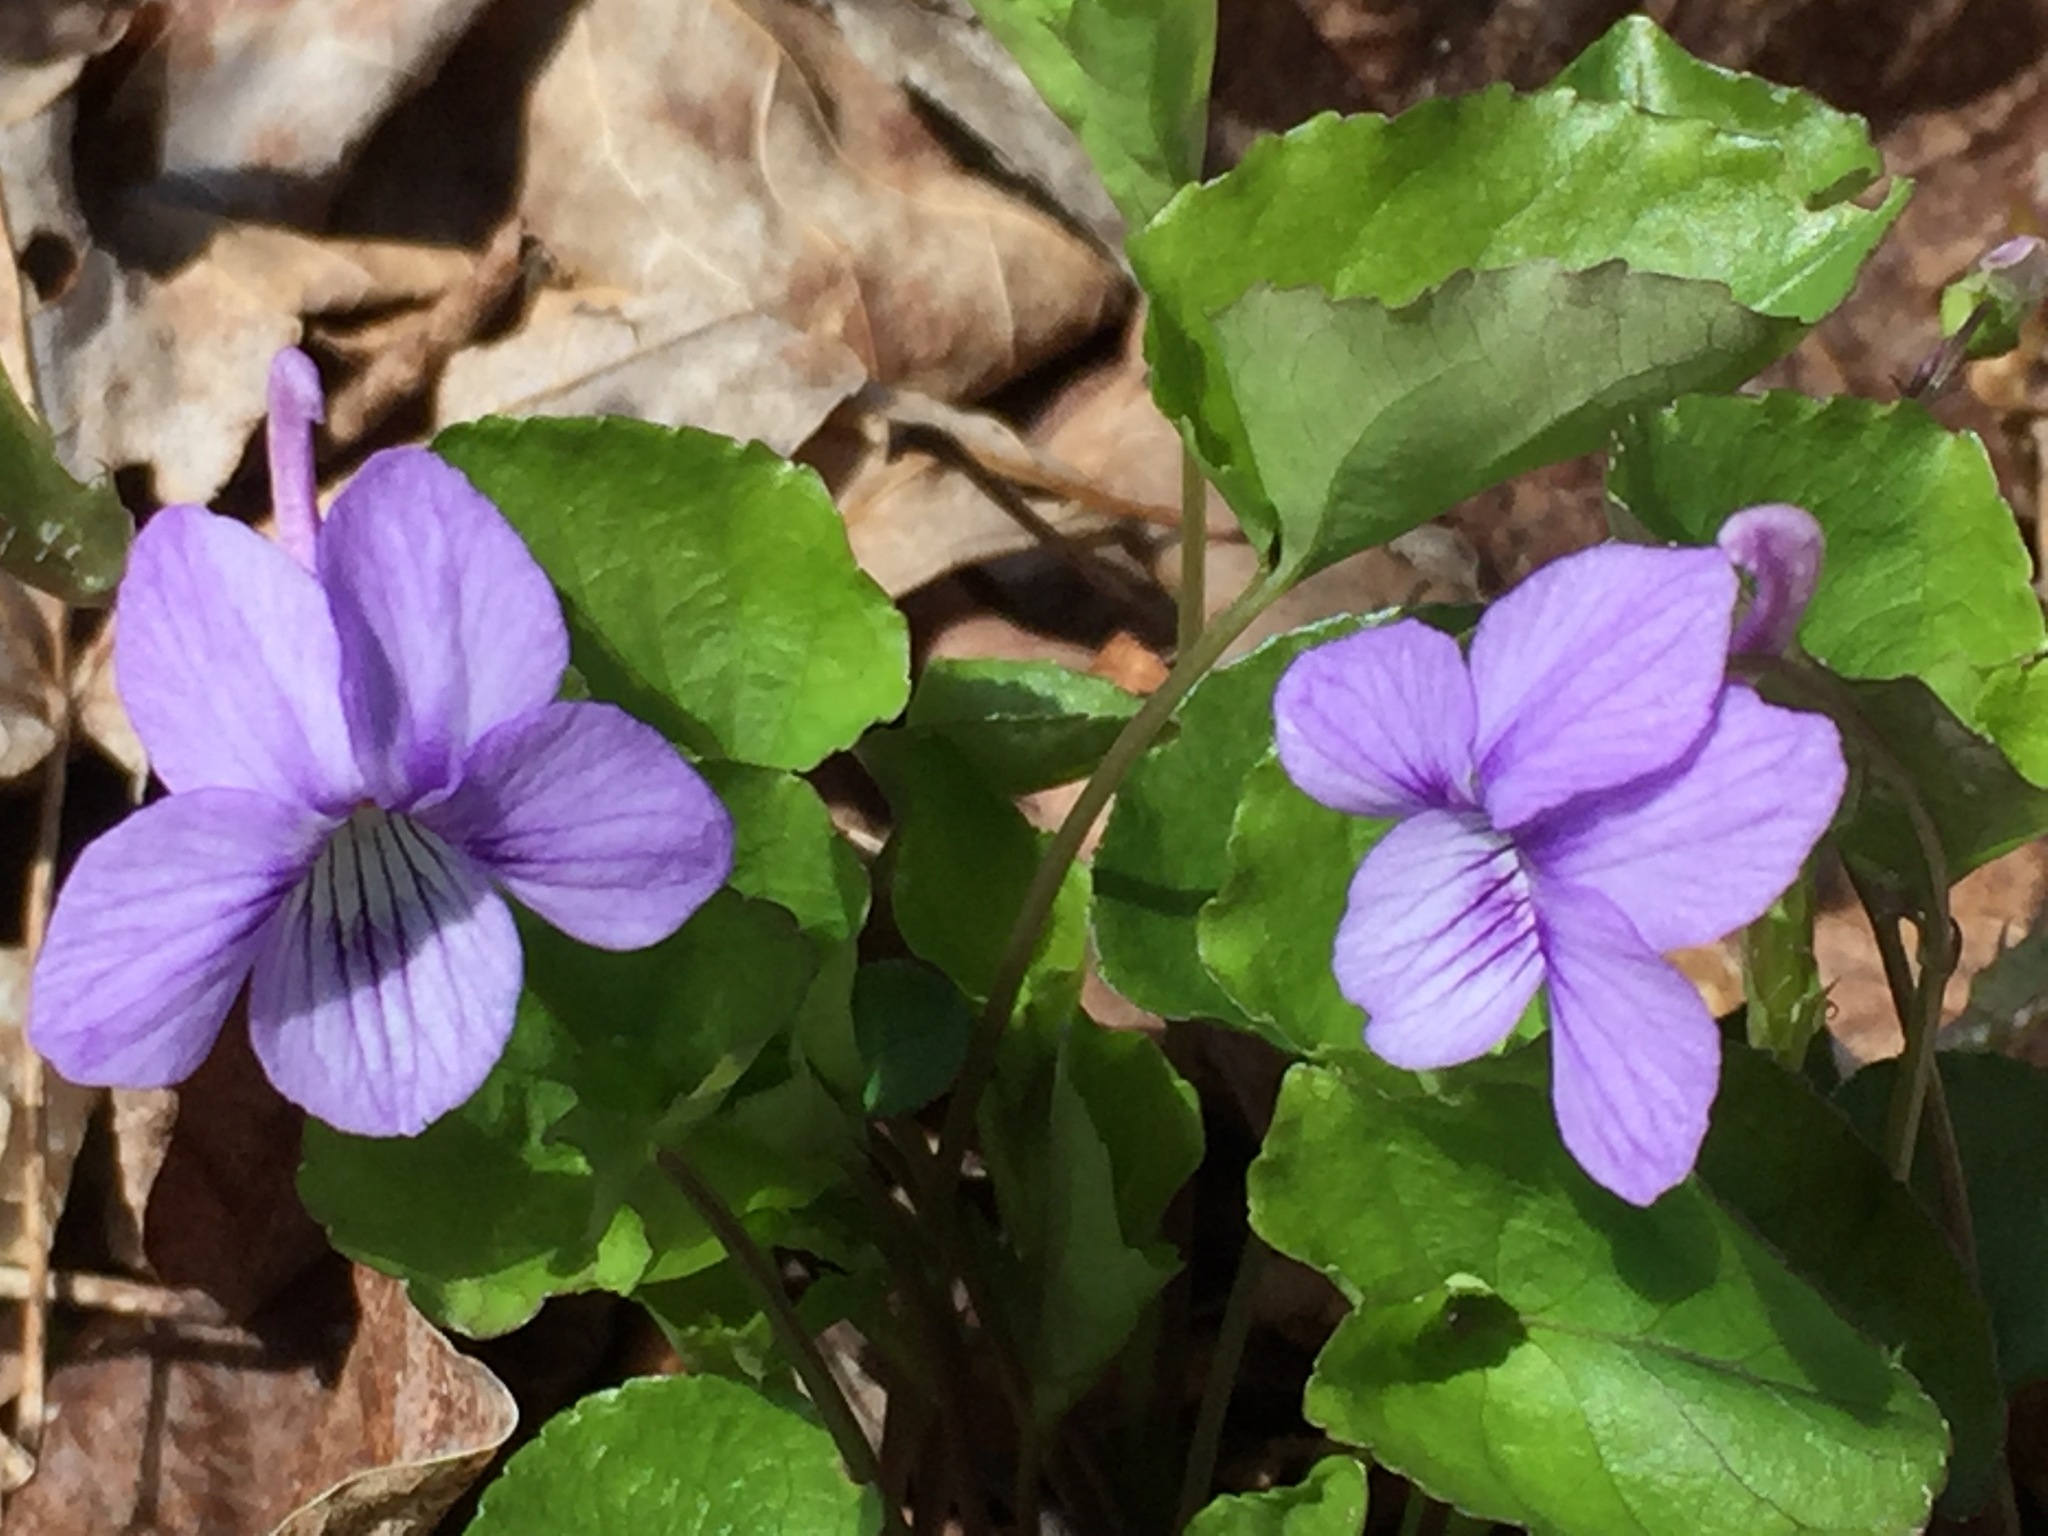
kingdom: Plantae
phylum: Tracheophyta
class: Magnoliopsida
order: Malpighiales
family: Violaceae
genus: Viola
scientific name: Viola rostrata
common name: Long-spur violet
